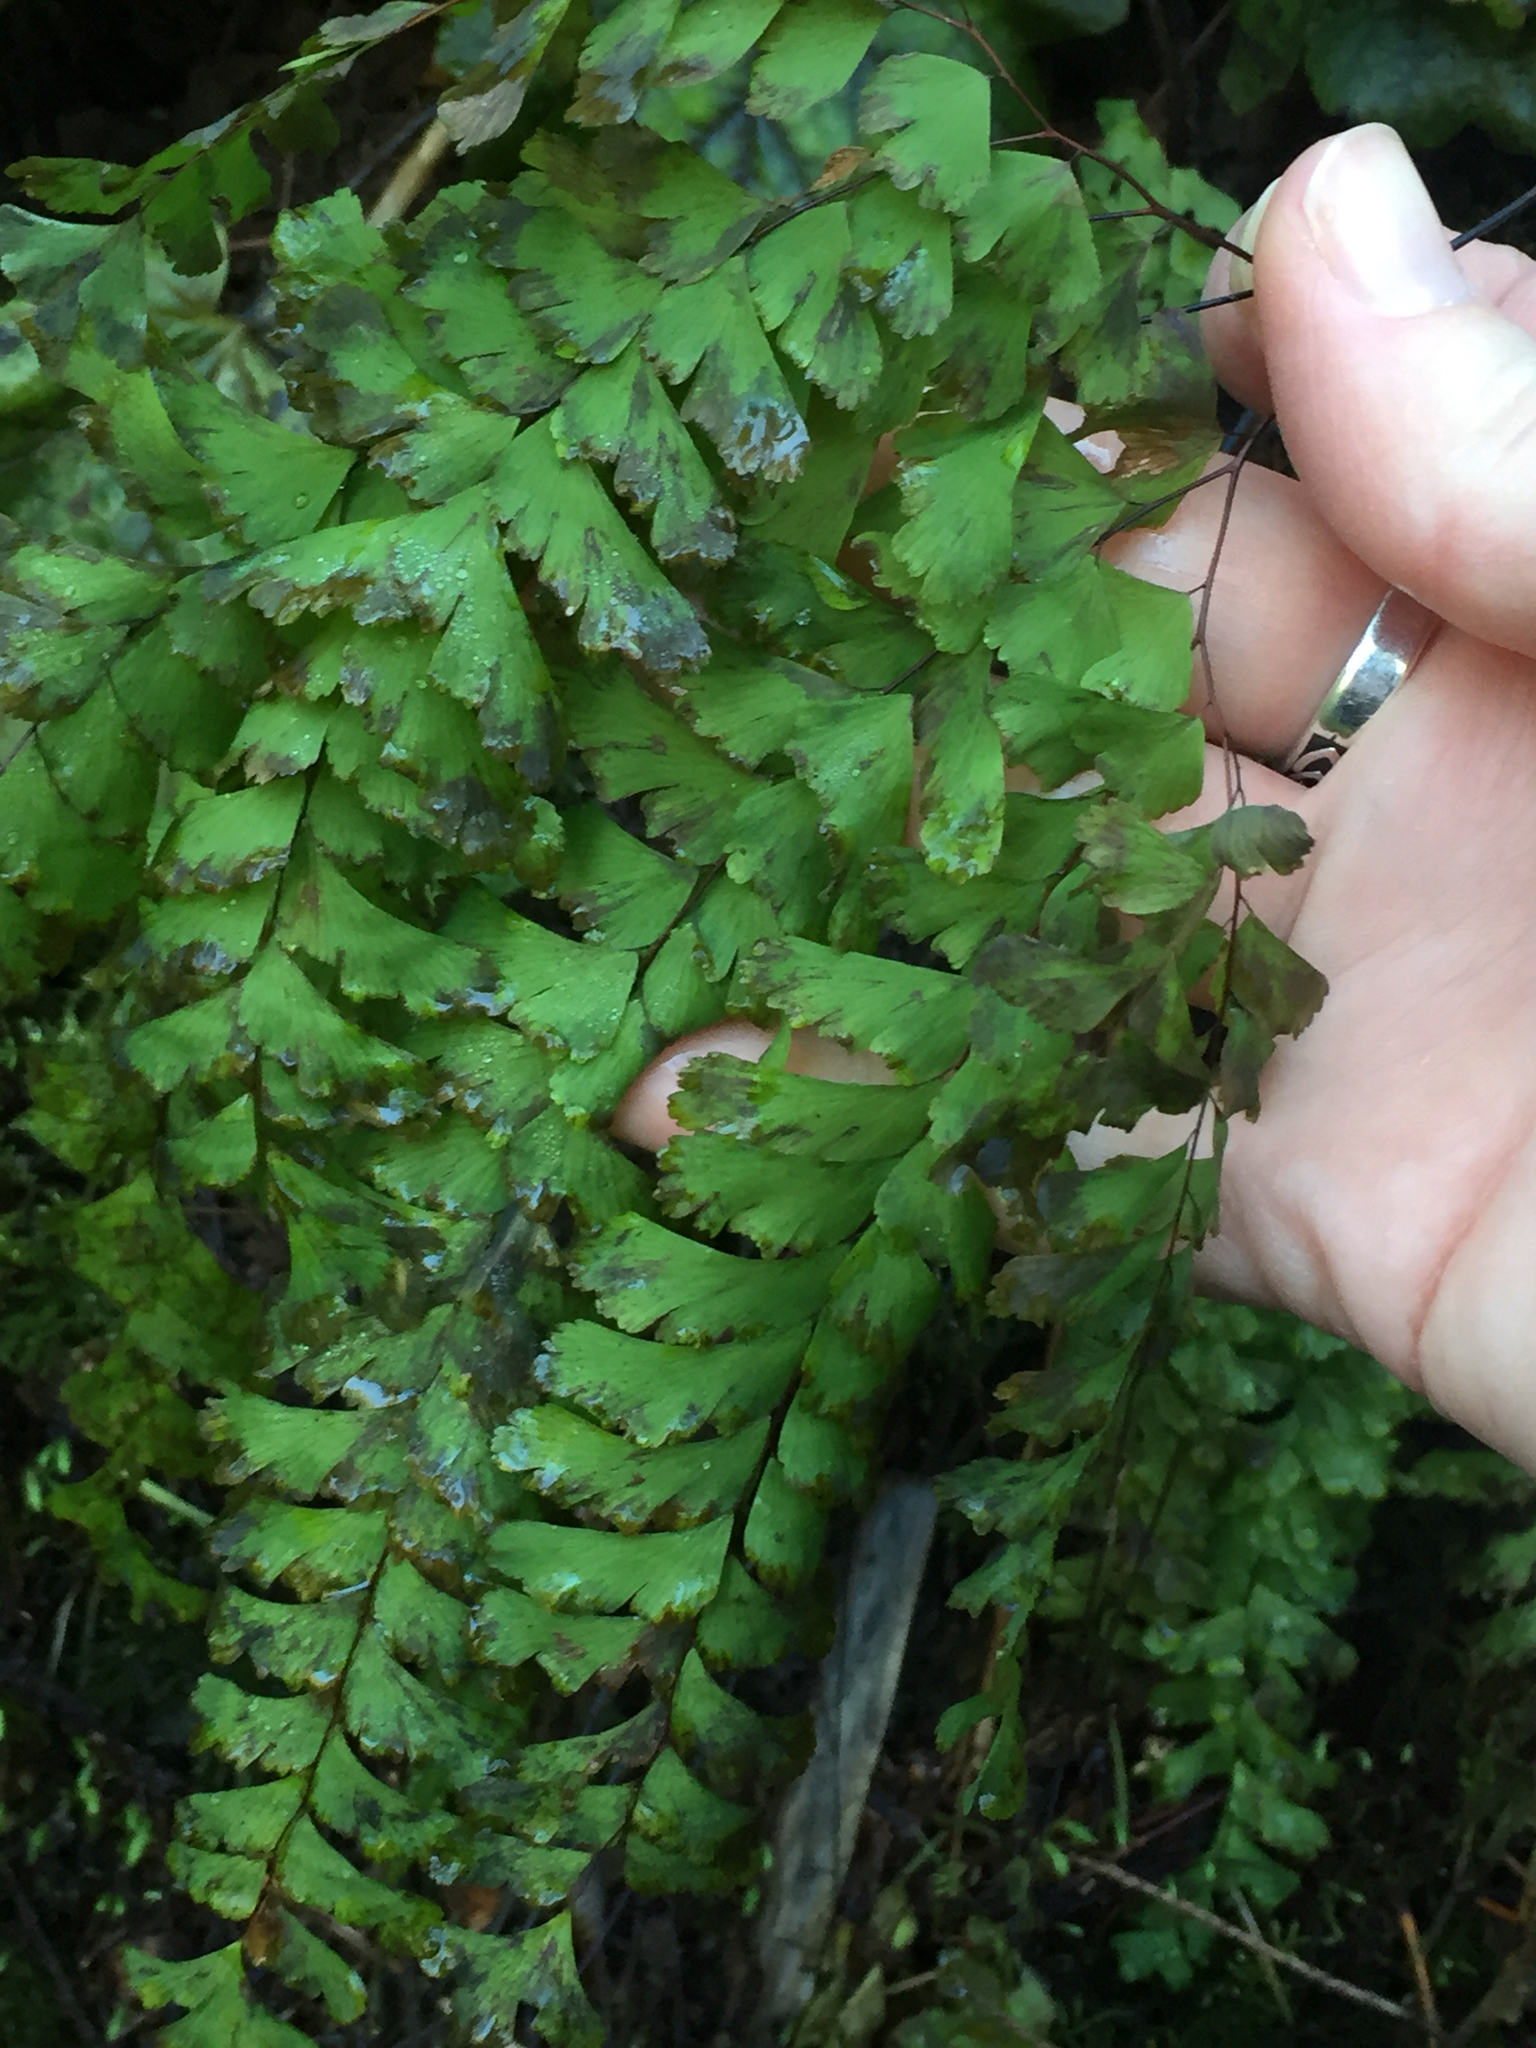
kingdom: Plantae
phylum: Tracheophyta
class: Polypodiopsida
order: Polypodiales
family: Pteridaceae
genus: Adiantum
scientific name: Adiantum aleuticum
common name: Aleutian maidenhair fern
